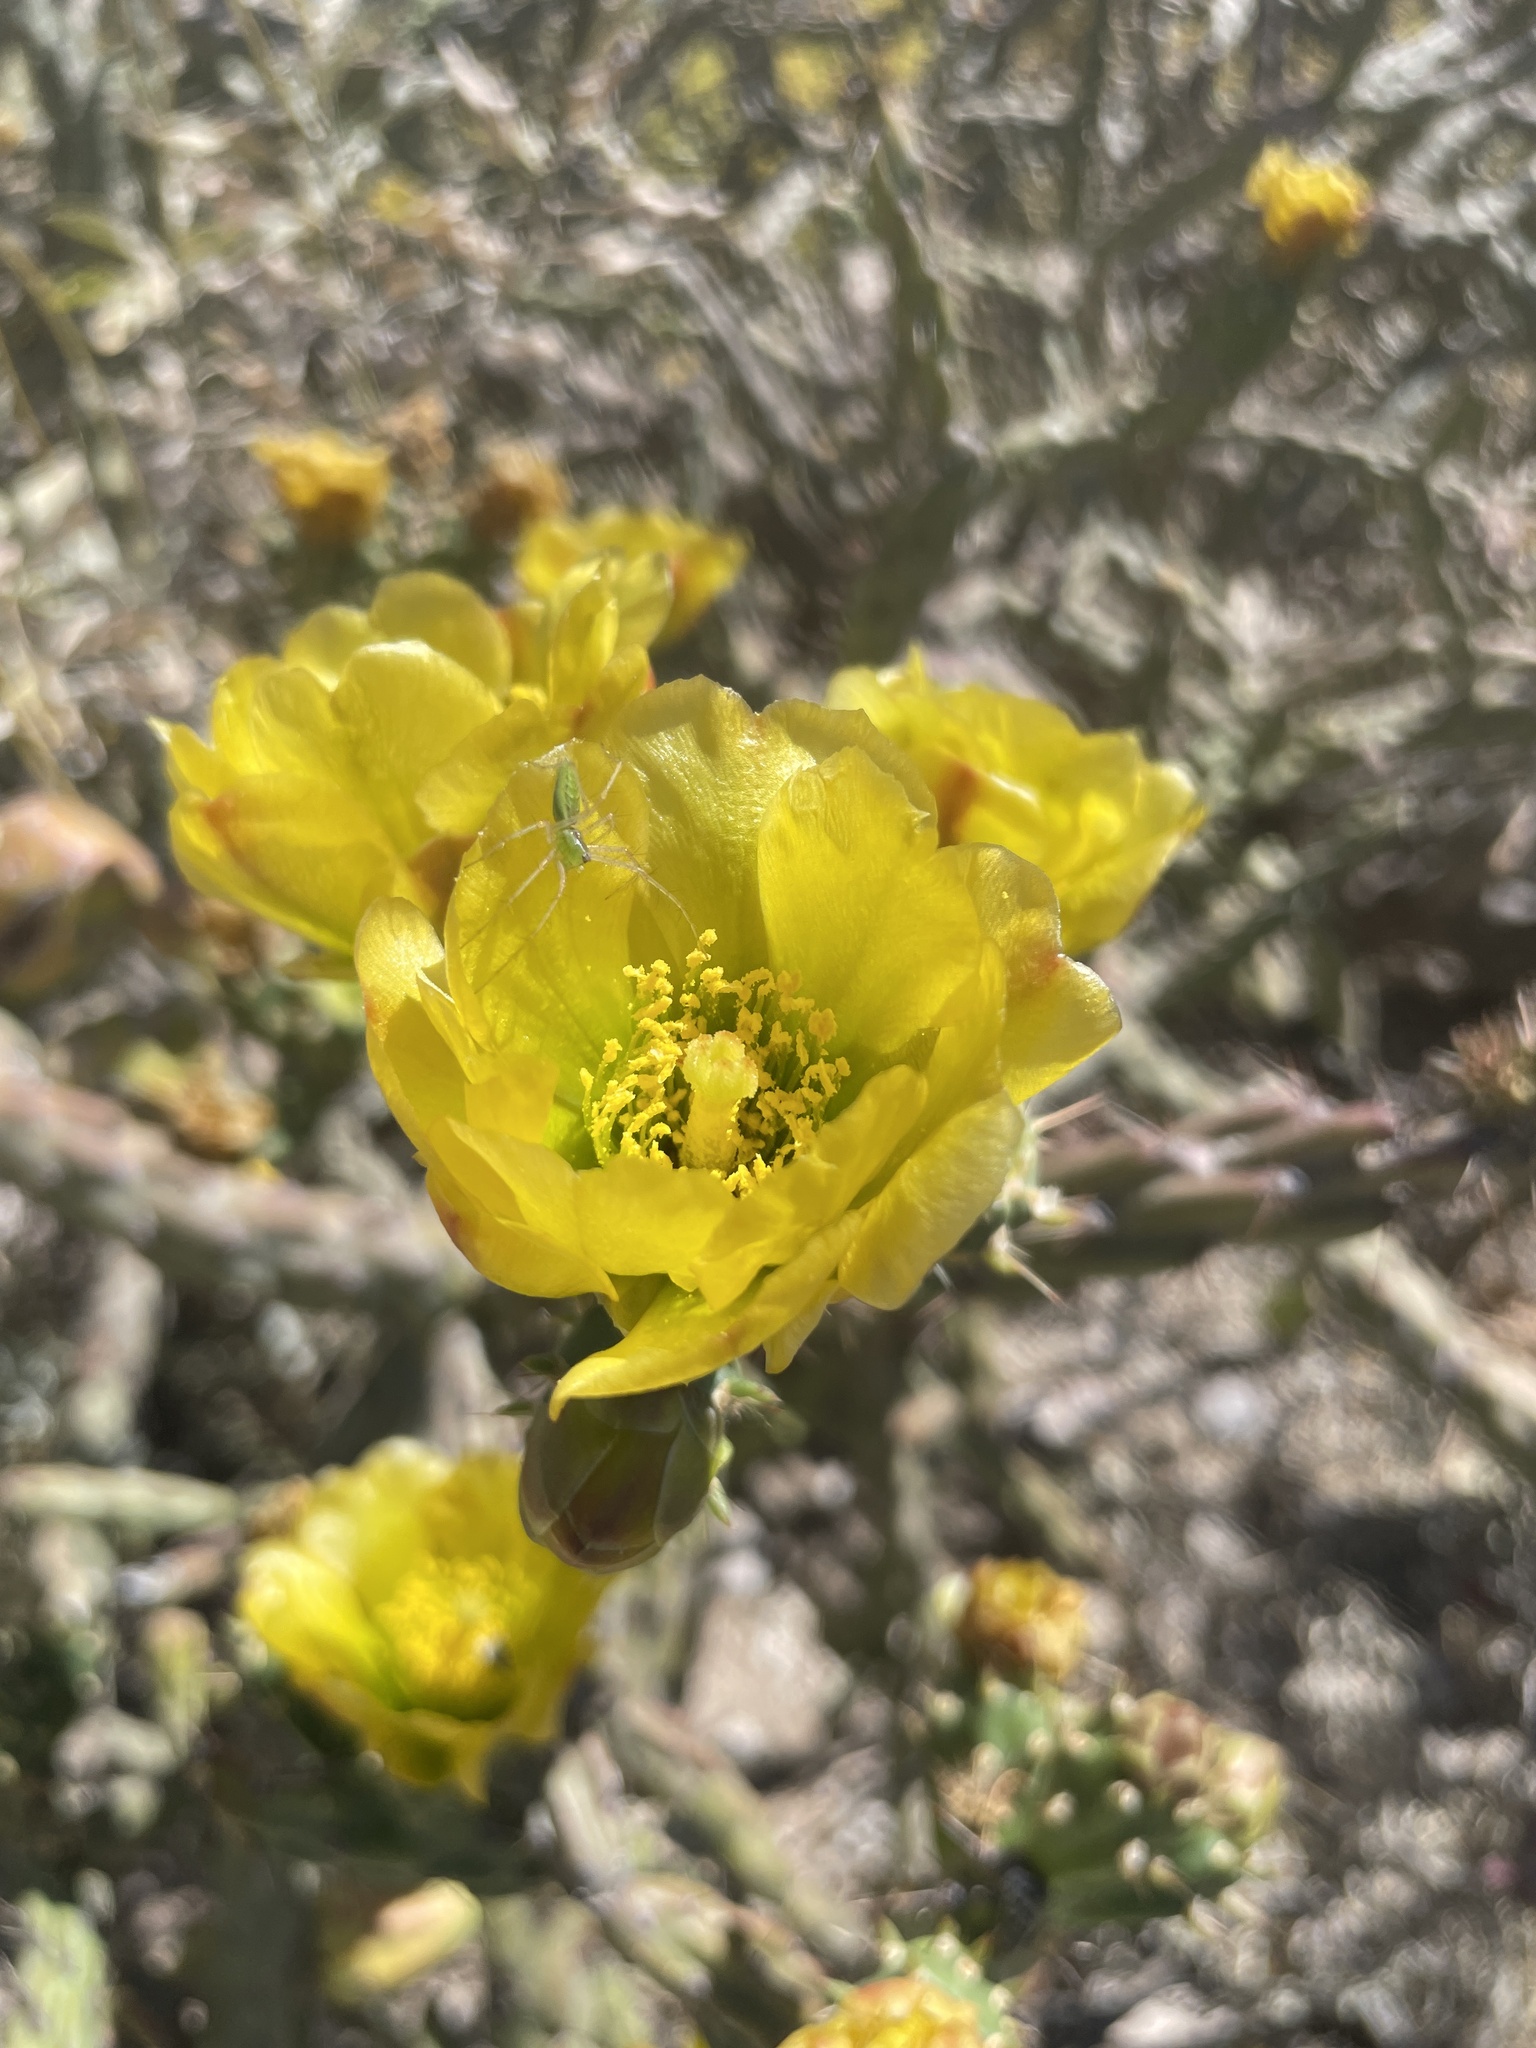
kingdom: Plantae
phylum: Tracheophyta
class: Magnoliopsida
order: Caryophyllales
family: Cactaceae
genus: Cylindropuntia
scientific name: Cylindropuntia thurberi
